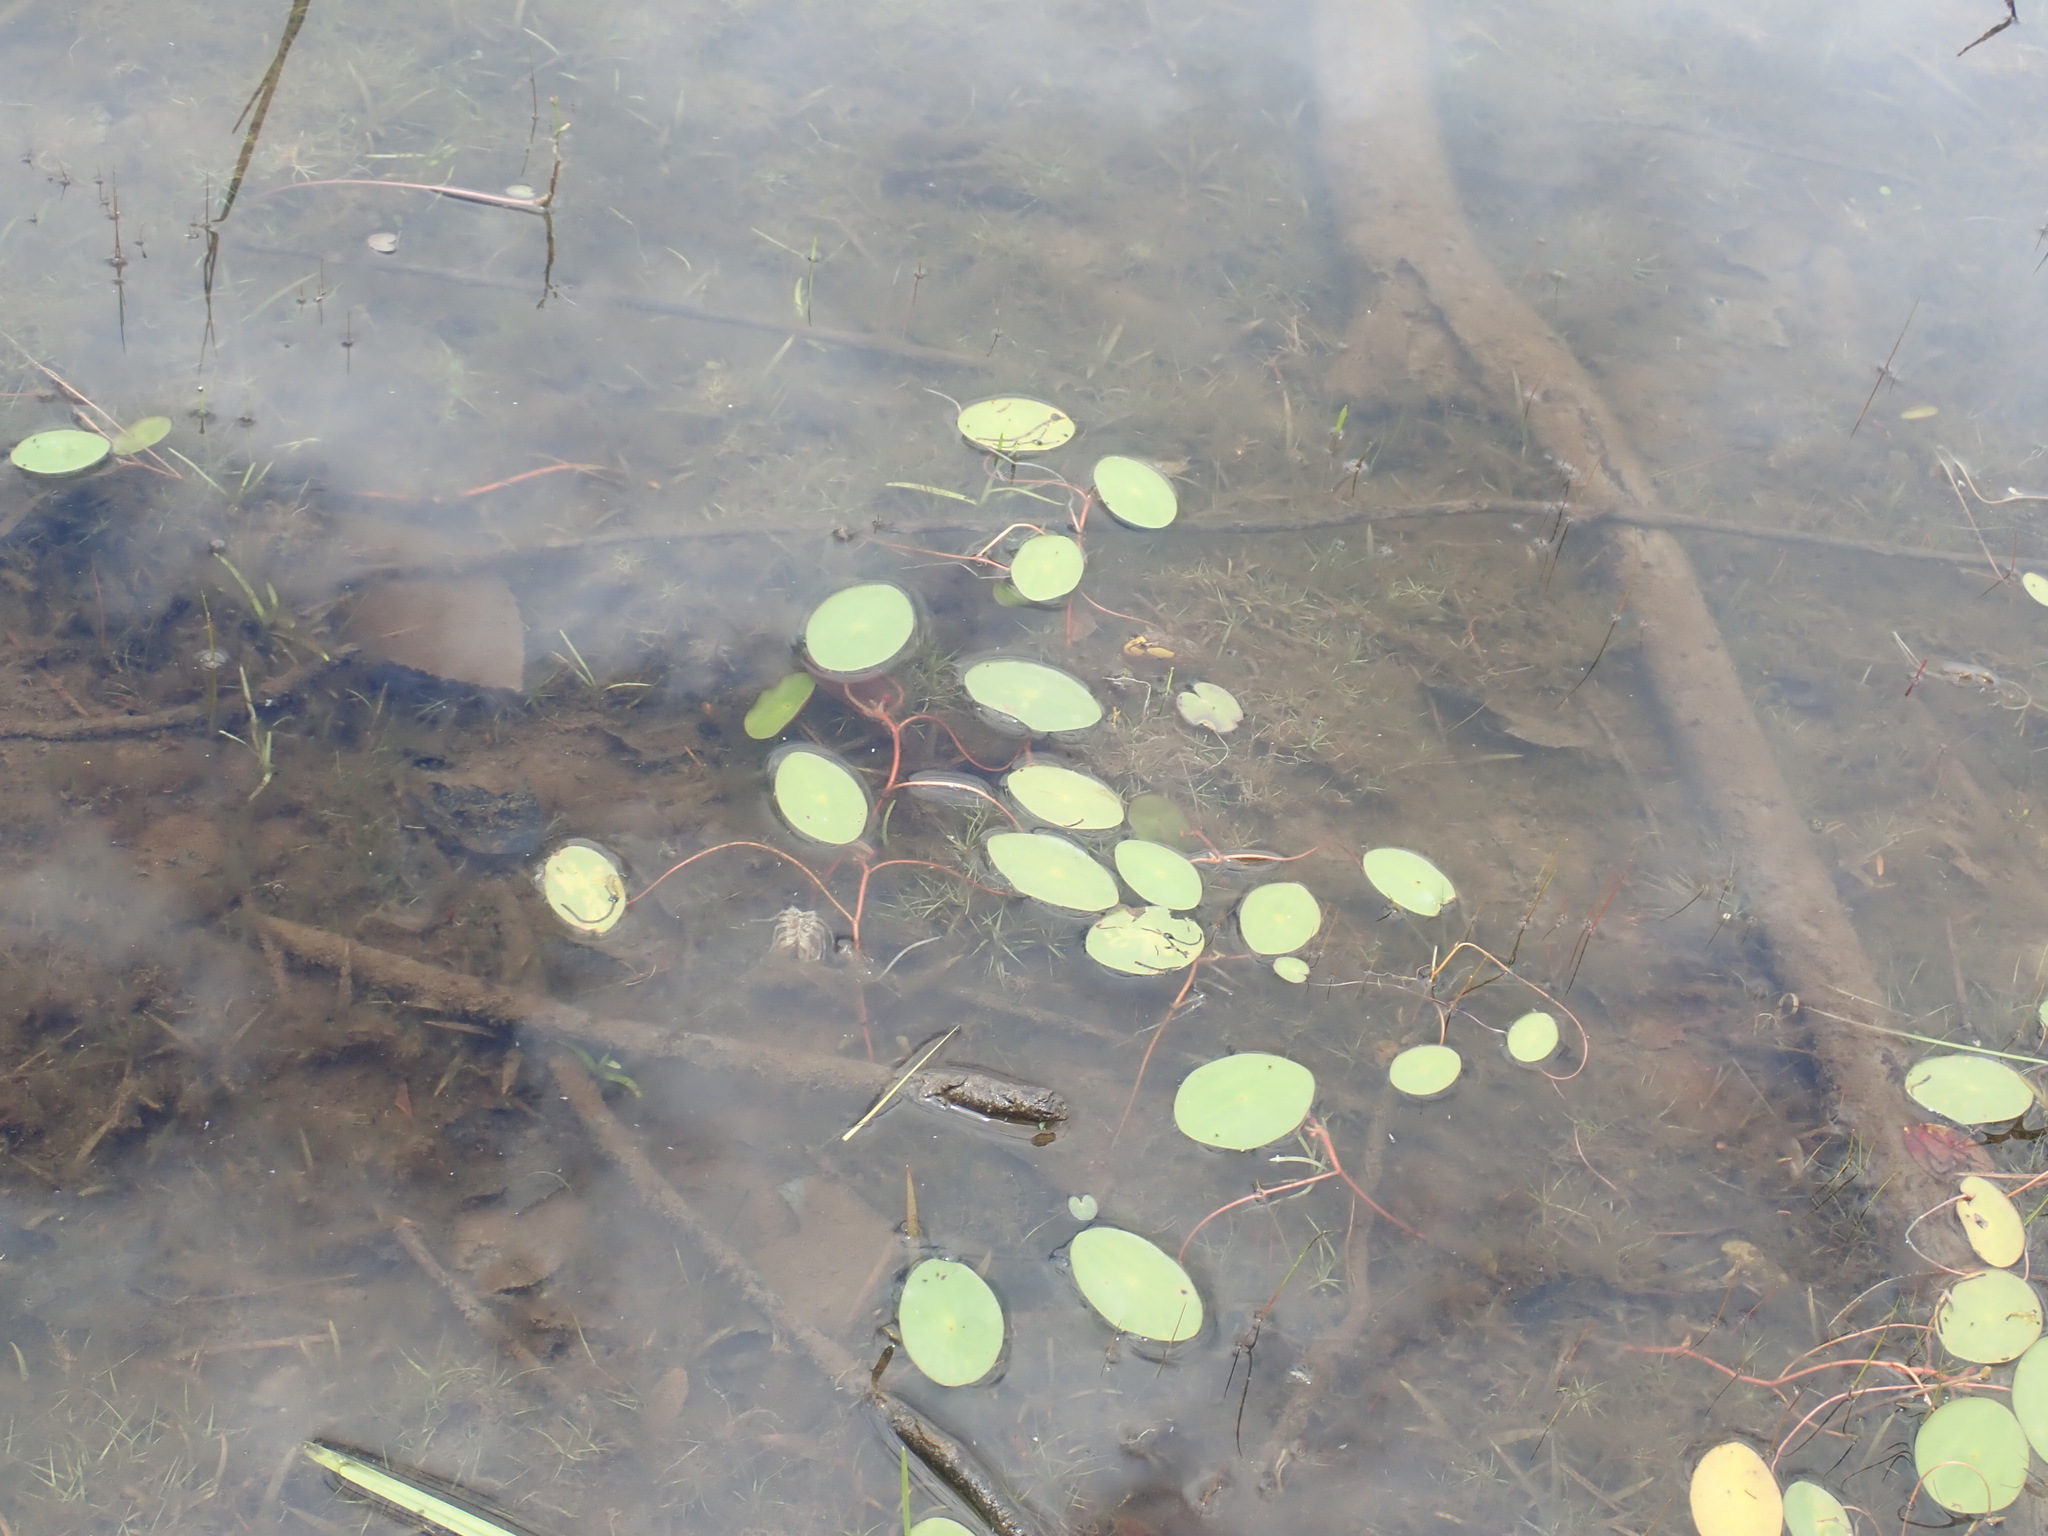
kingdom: Plantae
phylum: Tracheophyta
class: Magnoliopsida
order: Nymphaeales
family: Cabombaceae
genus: Brasenia
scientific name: Brasenia schreberi
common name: Water-shield
